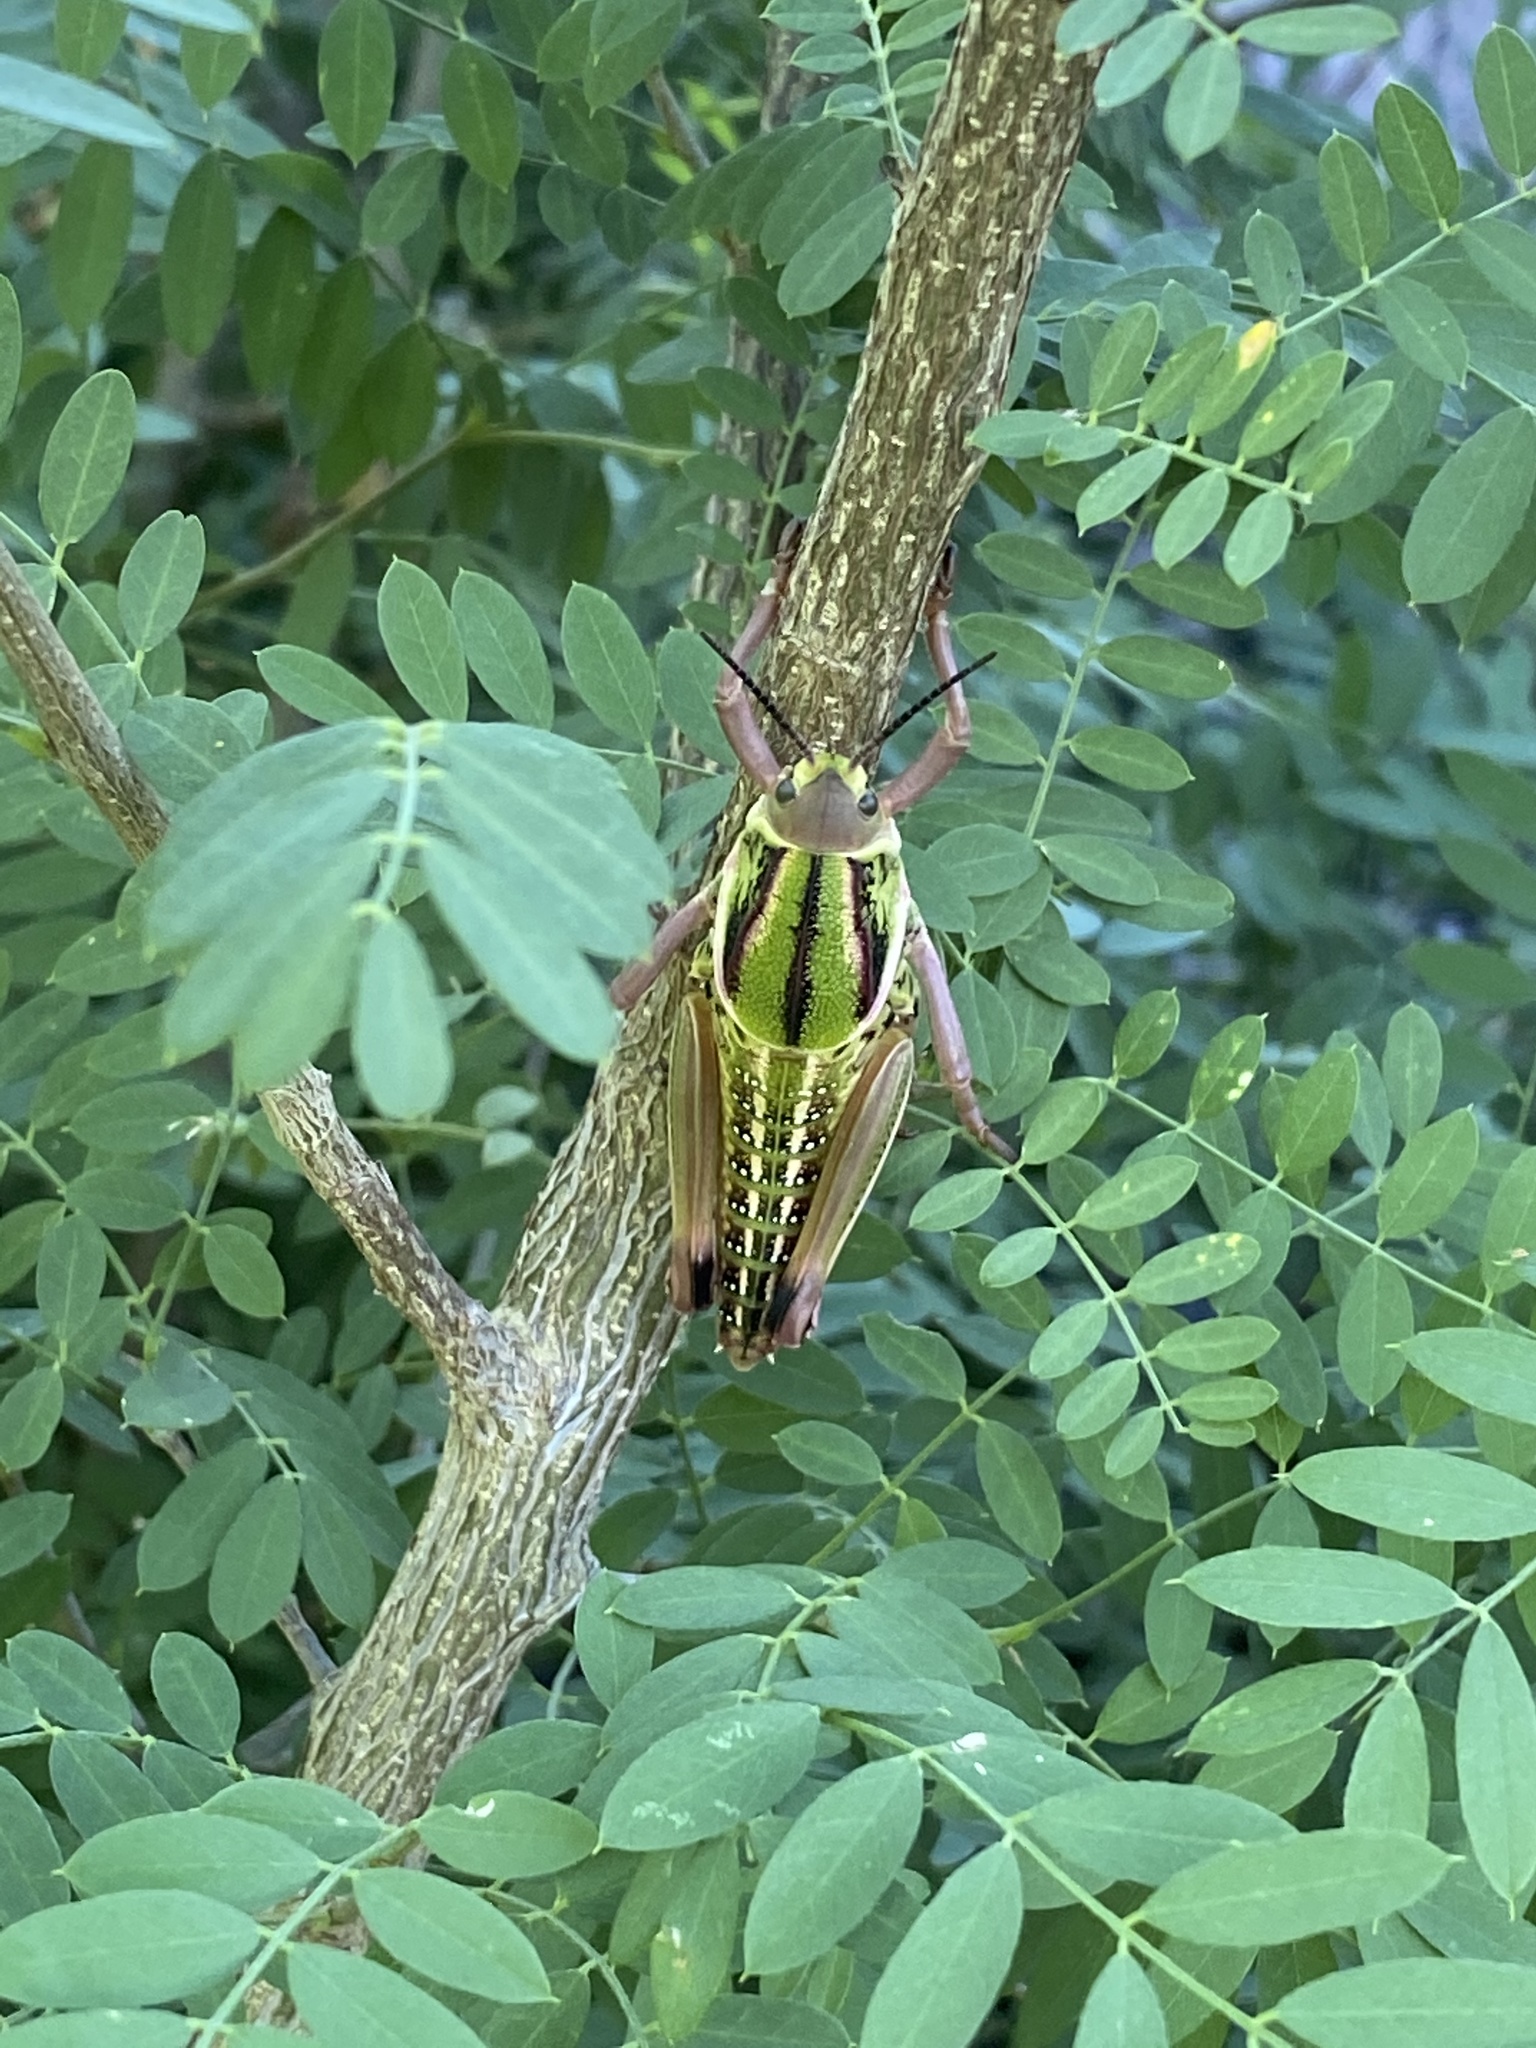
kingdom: Animalia
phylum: Arthropoda
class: Insecta
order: Orthoptera
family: Romaleidae
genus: Brachystola
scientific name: Brachystola magna
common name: Plains lubber grasshopper
